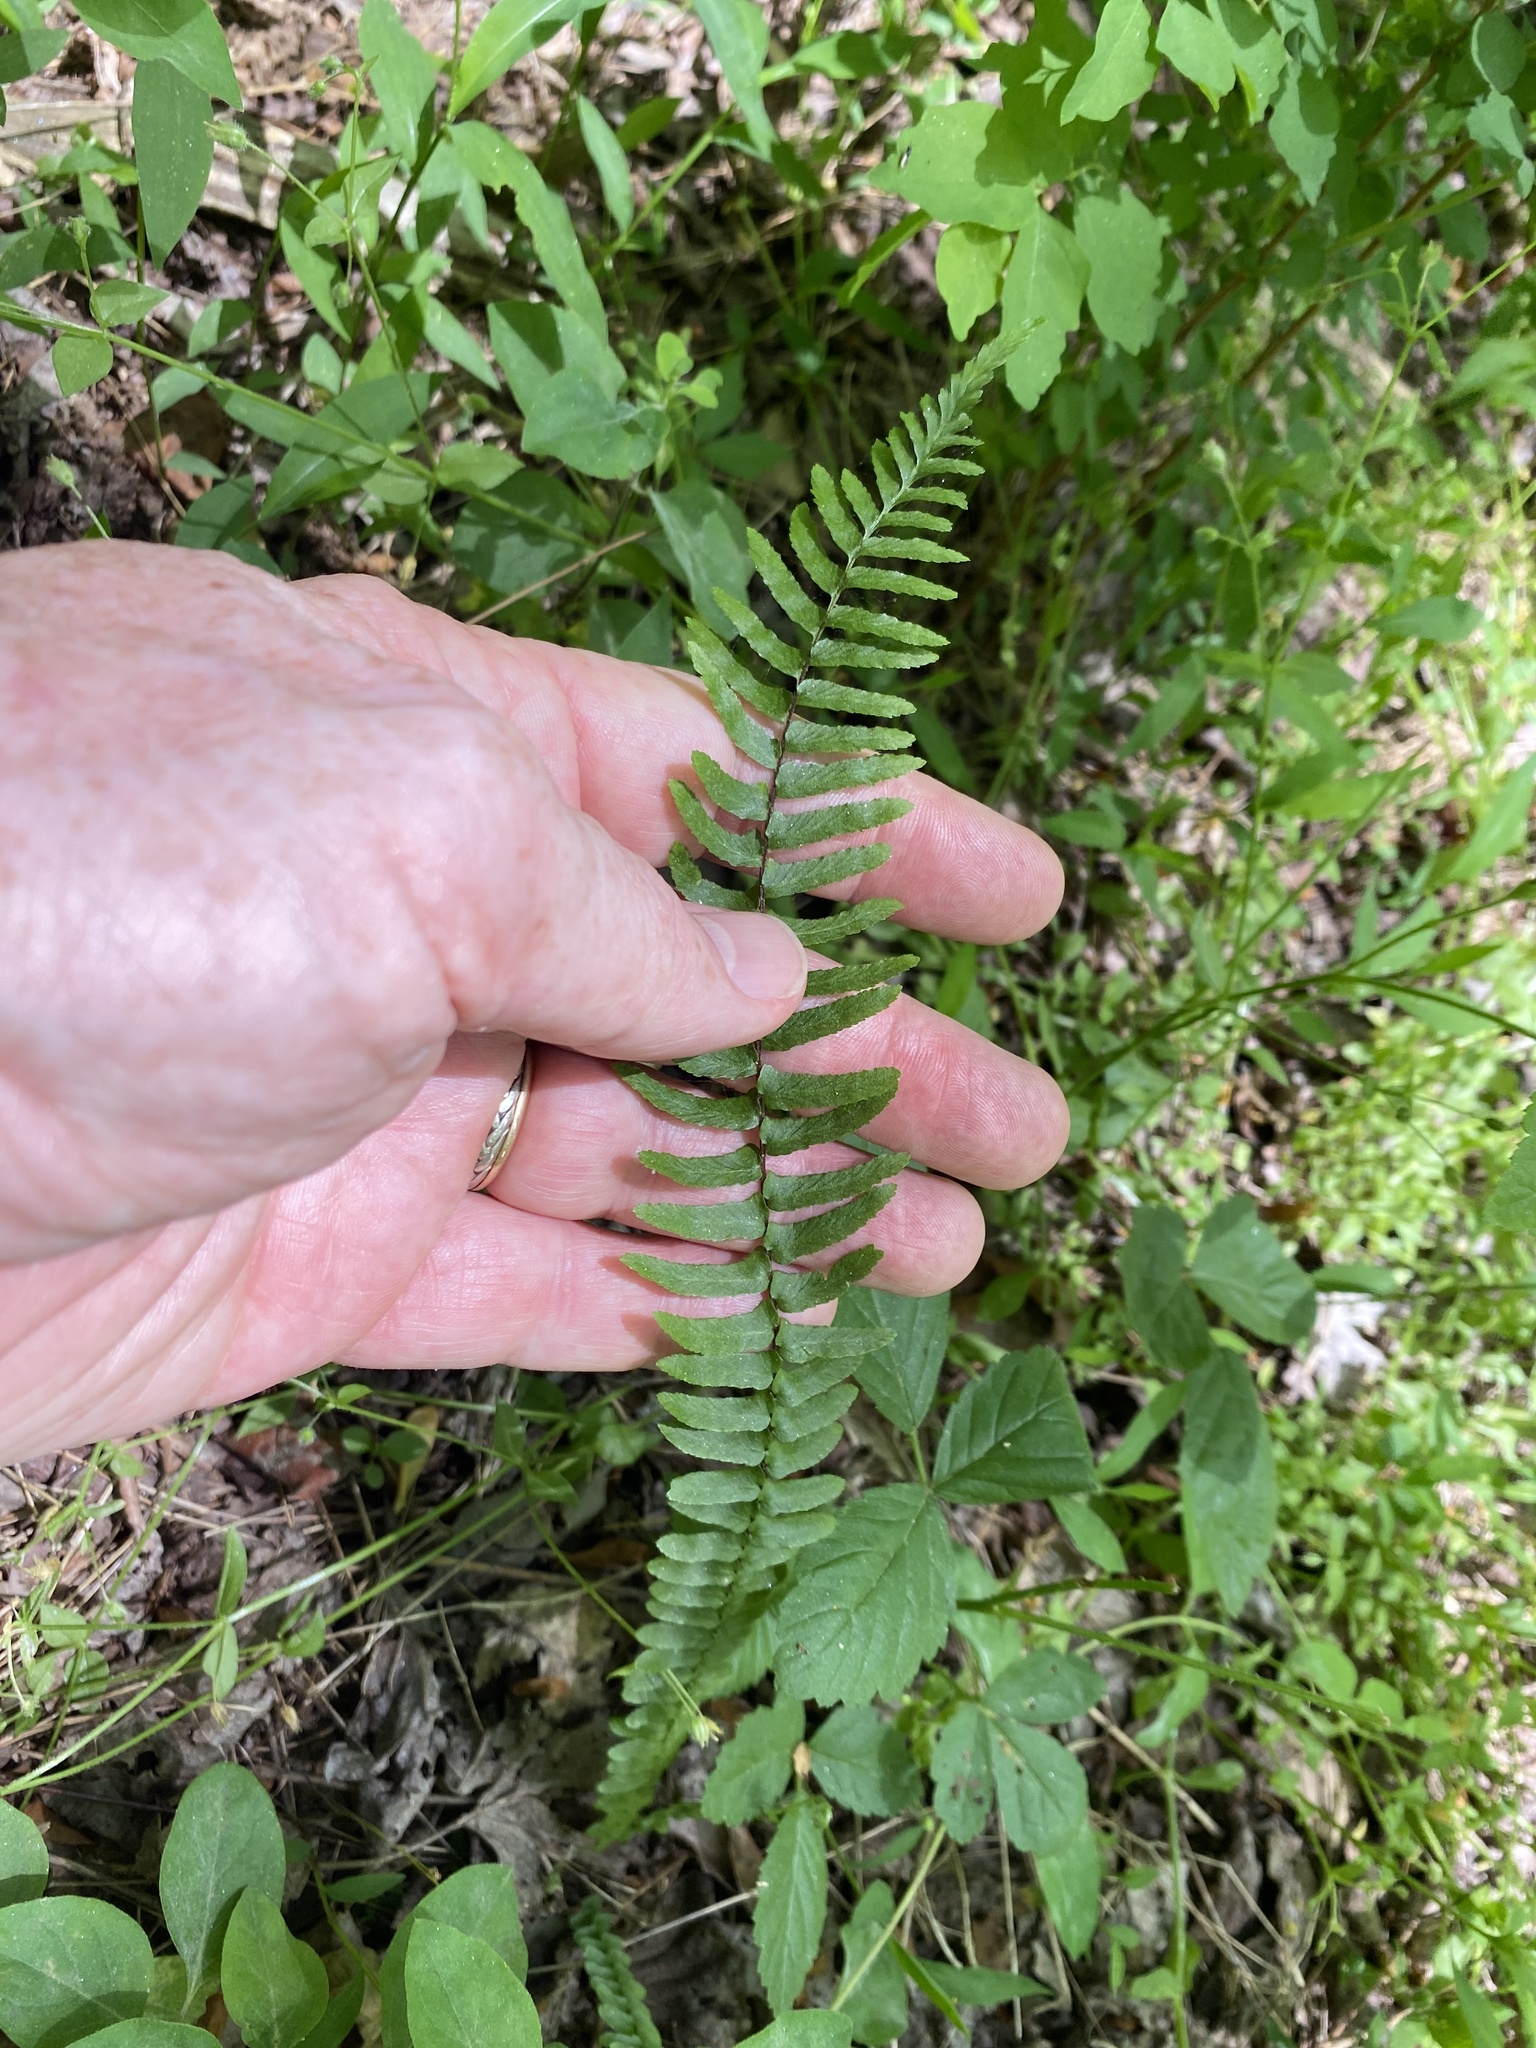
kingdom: Plantae
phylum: Tracheophyta
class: Polypodiopsida
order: Polypodiales
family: Aspleniaceae
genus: Asplenium
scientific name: Asplenium platyneuron
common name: Ebony spleenwort
